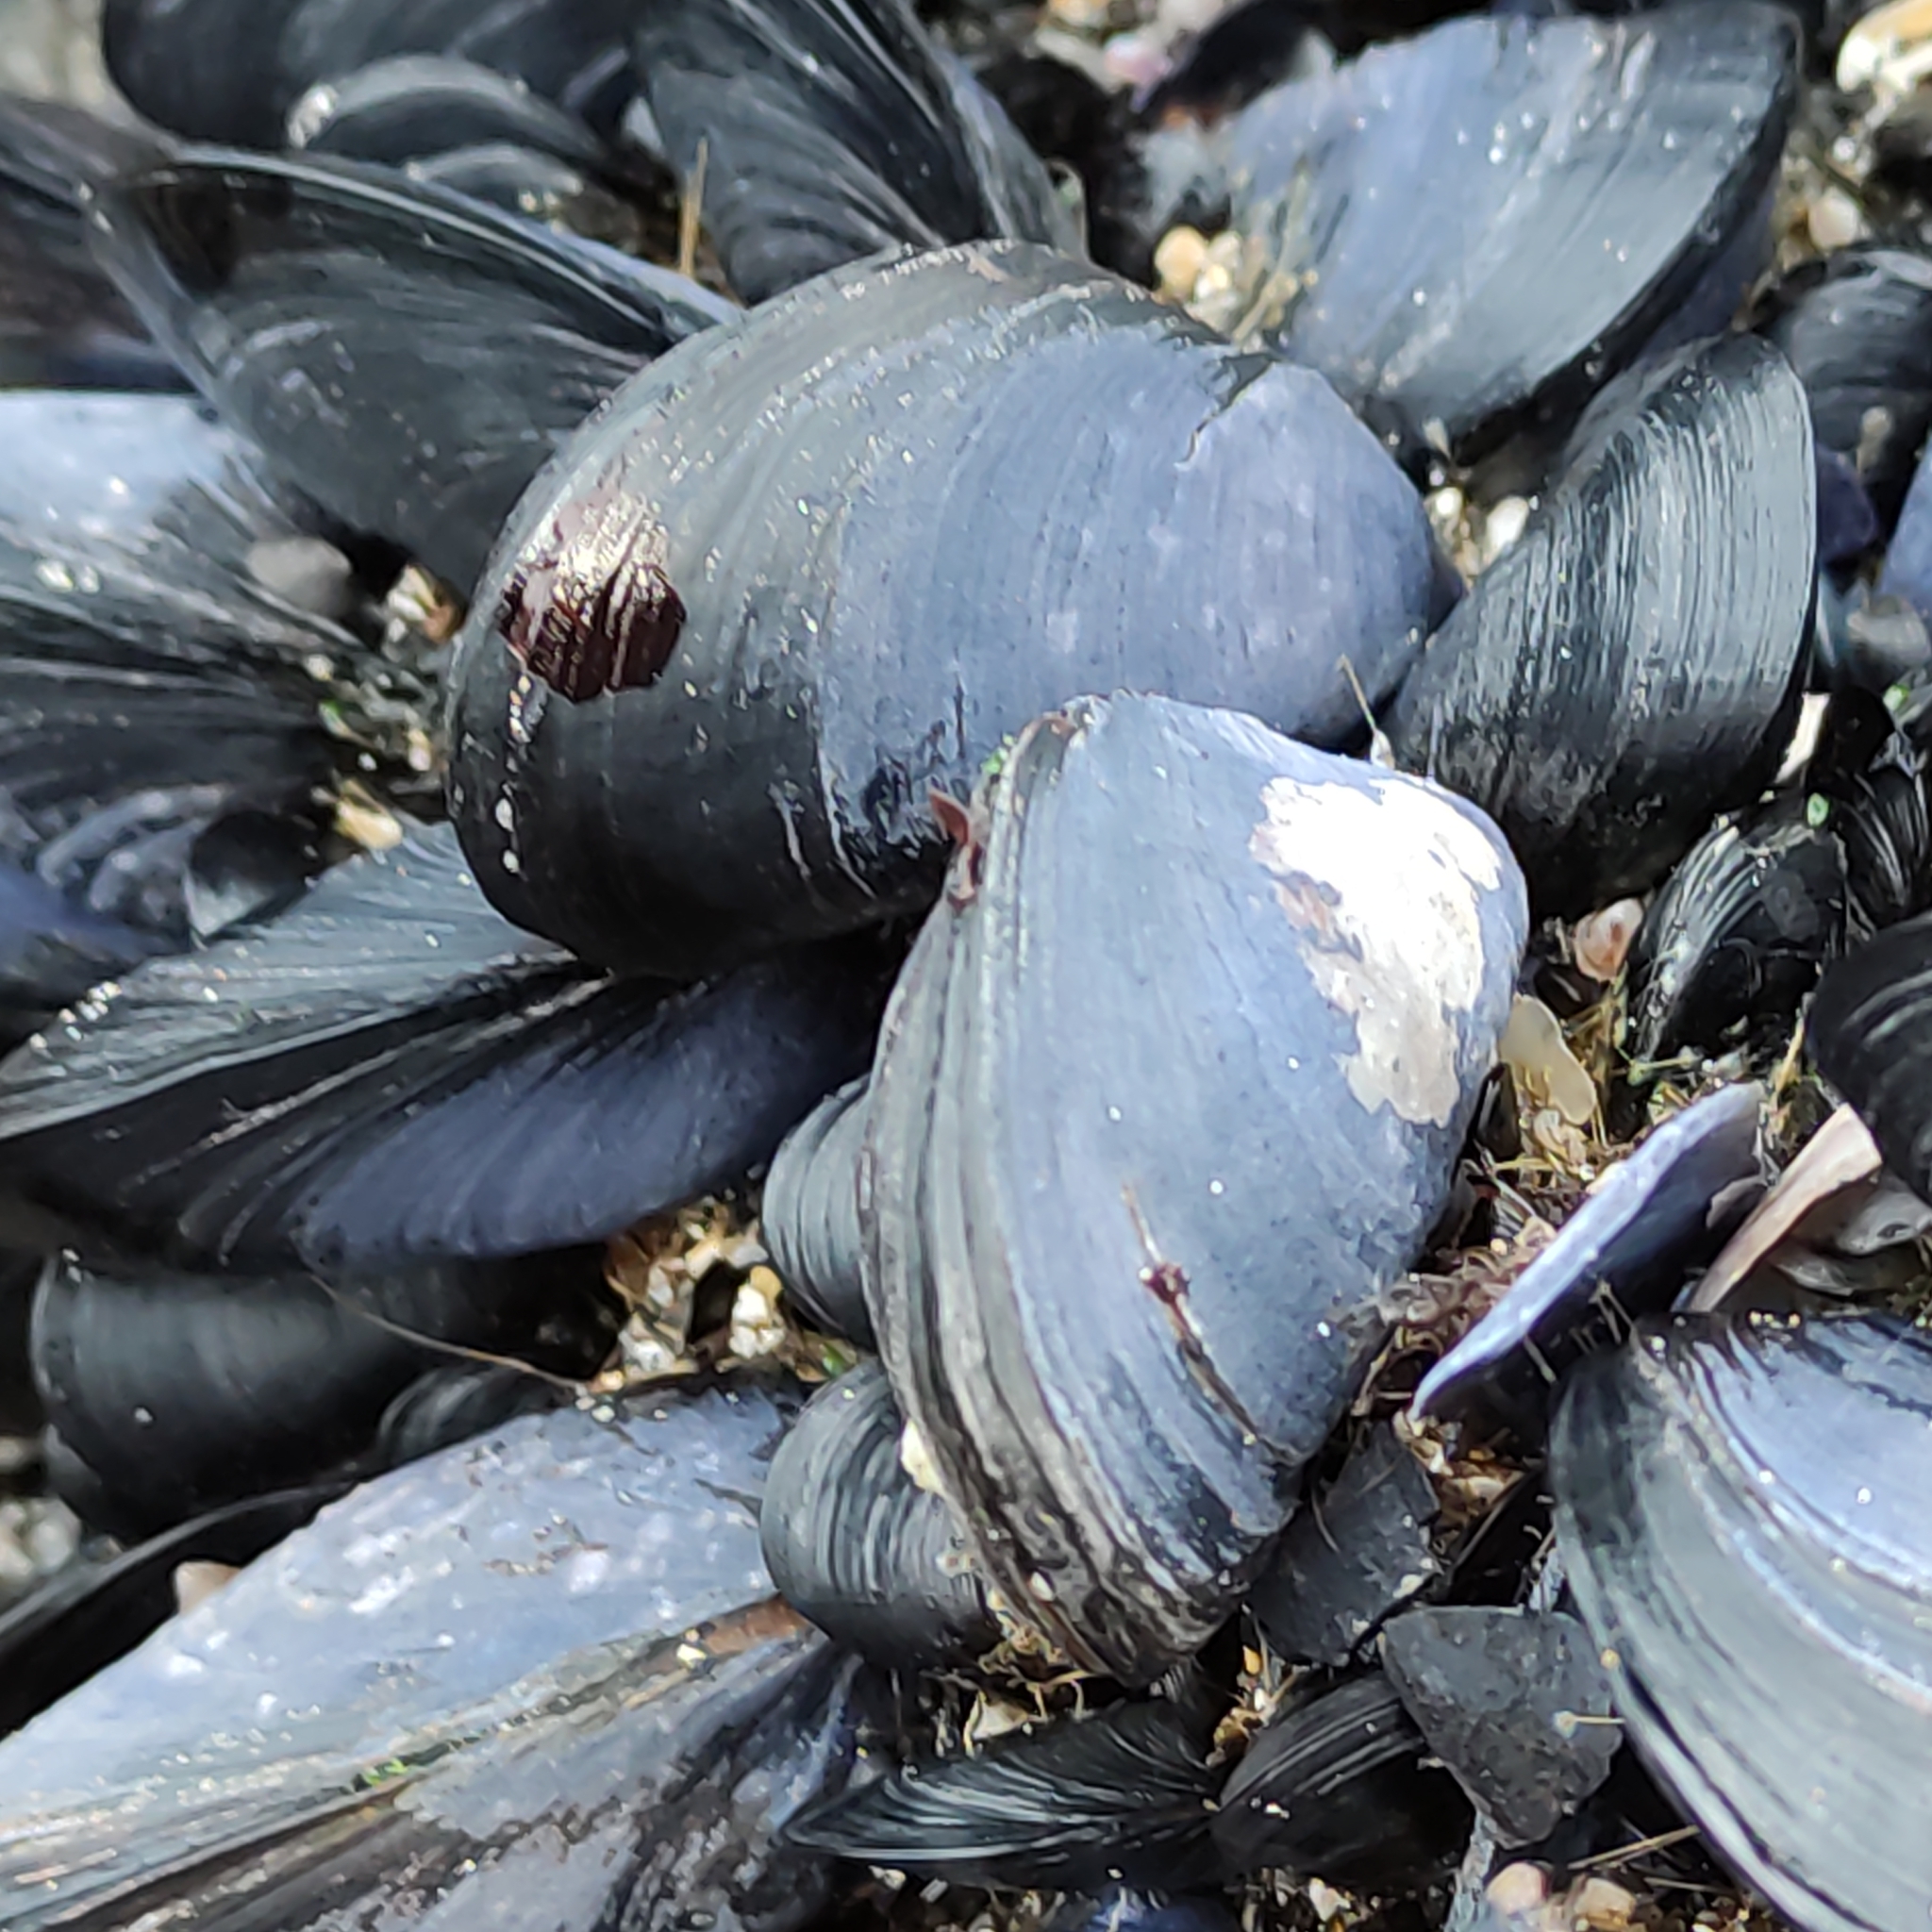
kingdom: Animalia
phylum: Mollusca
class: Bivalvia
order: Mytilida
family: Mytilidae
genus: Mytilus
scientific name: Mytilus planulatus
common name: Australian mussel
